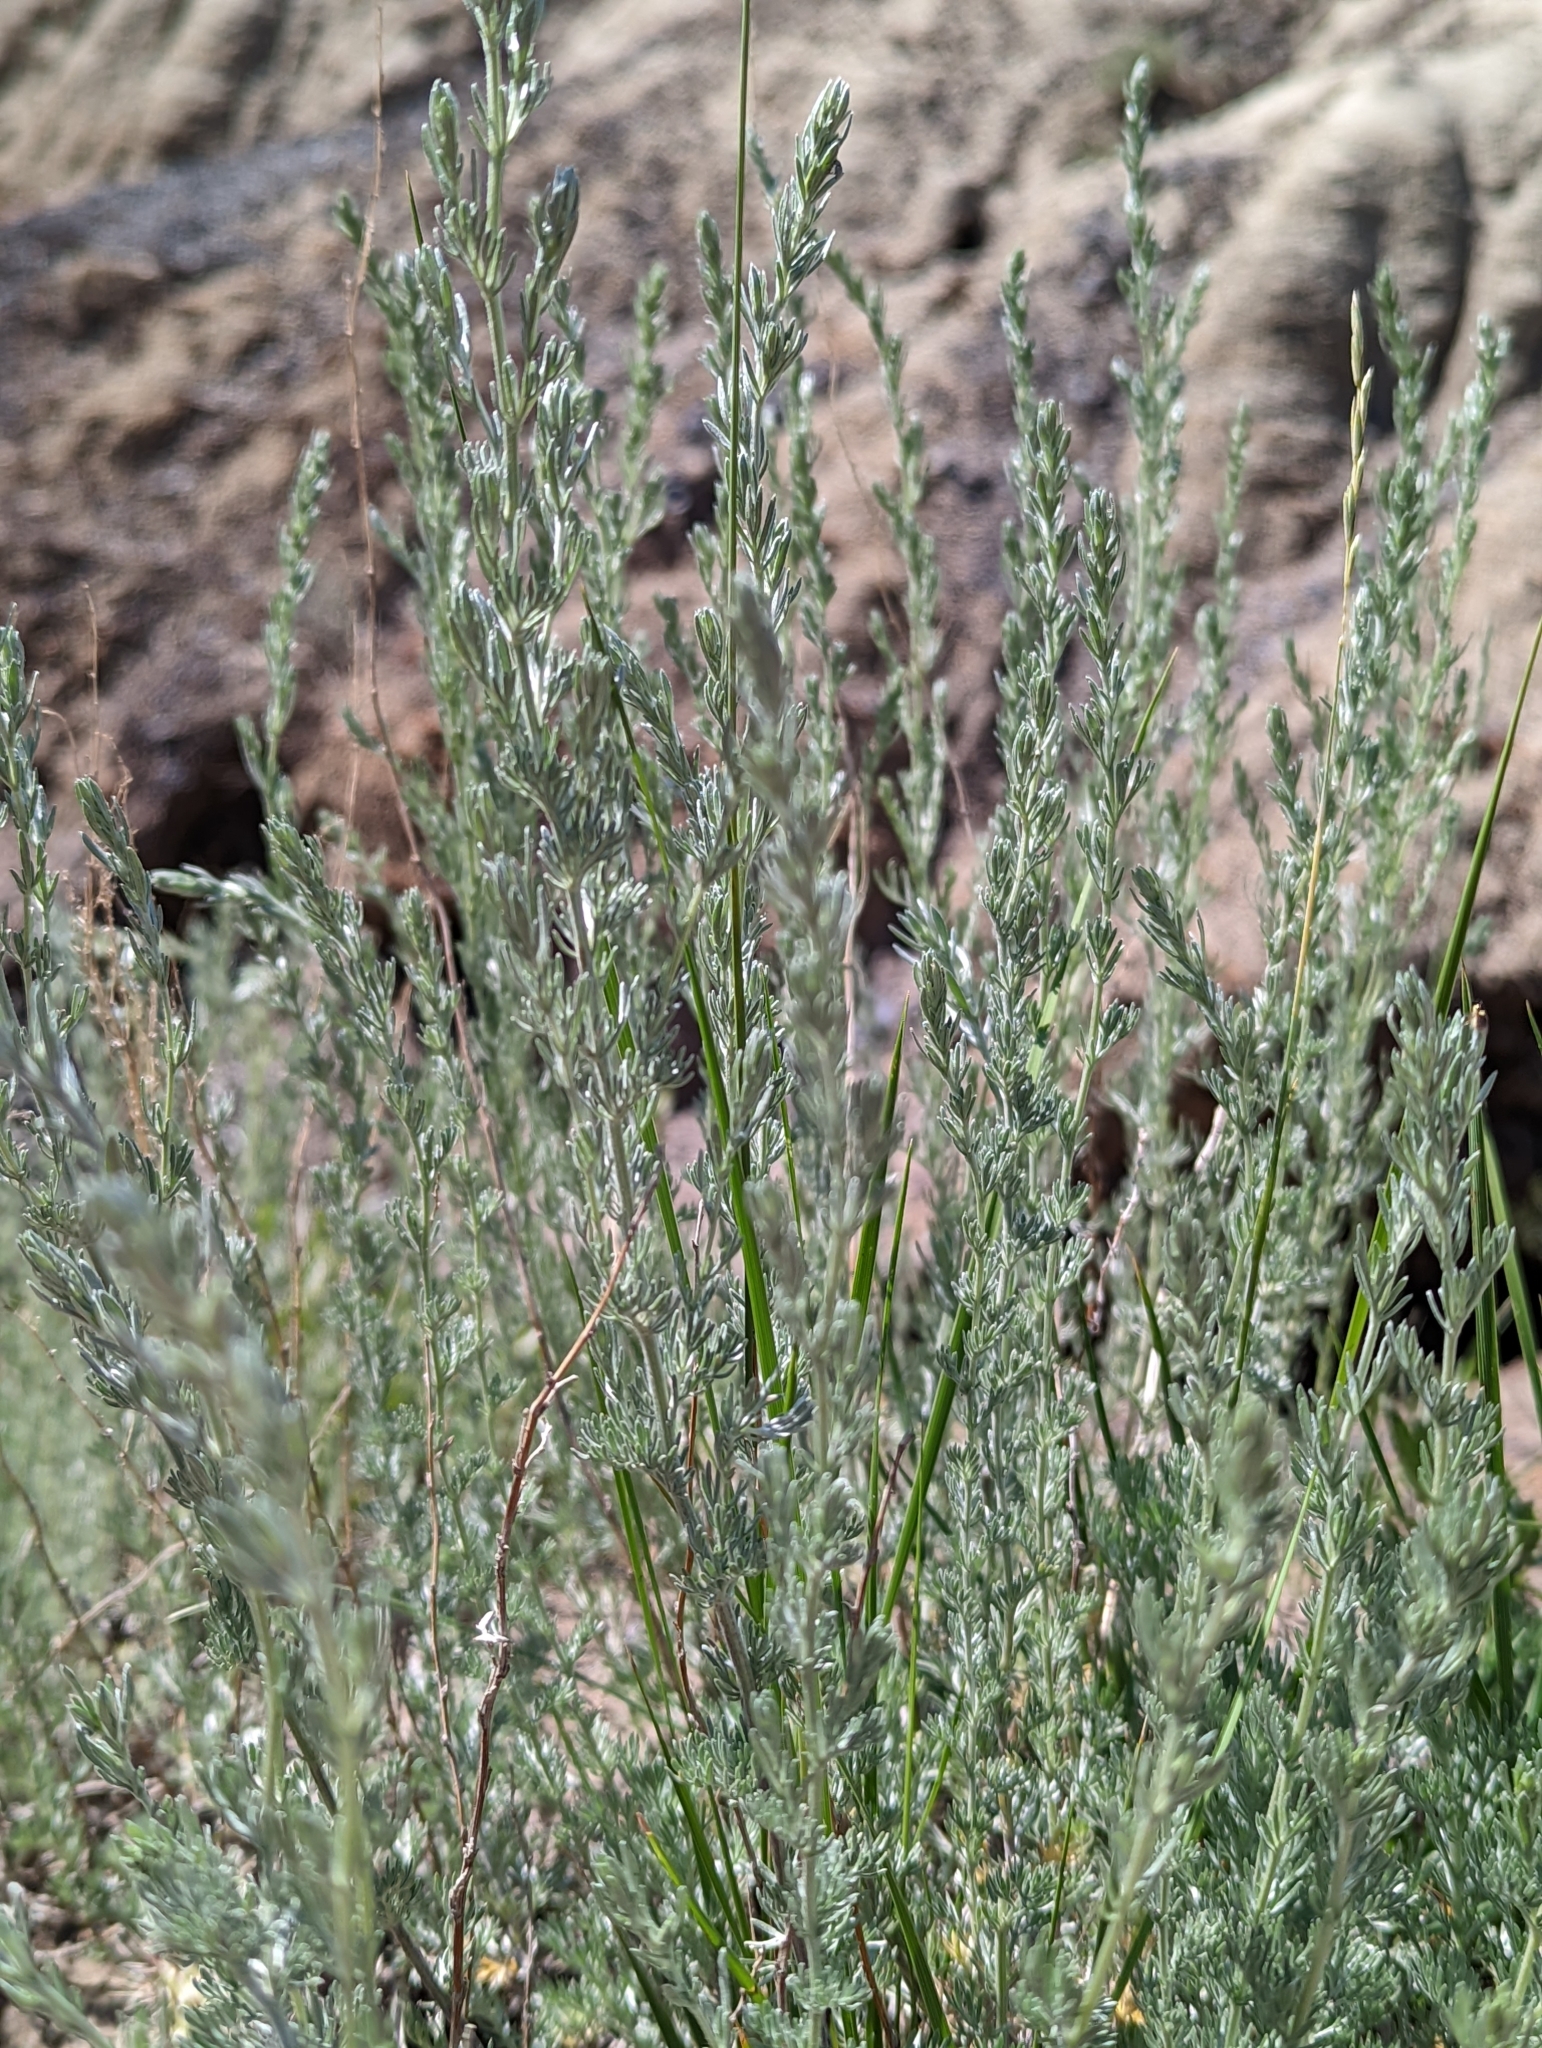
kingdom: Plantae
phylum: Tracheophyta
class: Magnoliopsida
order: Asterales
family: Asteraceae
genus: Artemisia
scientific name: Artemisia frigida
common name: Prairie sagewort
